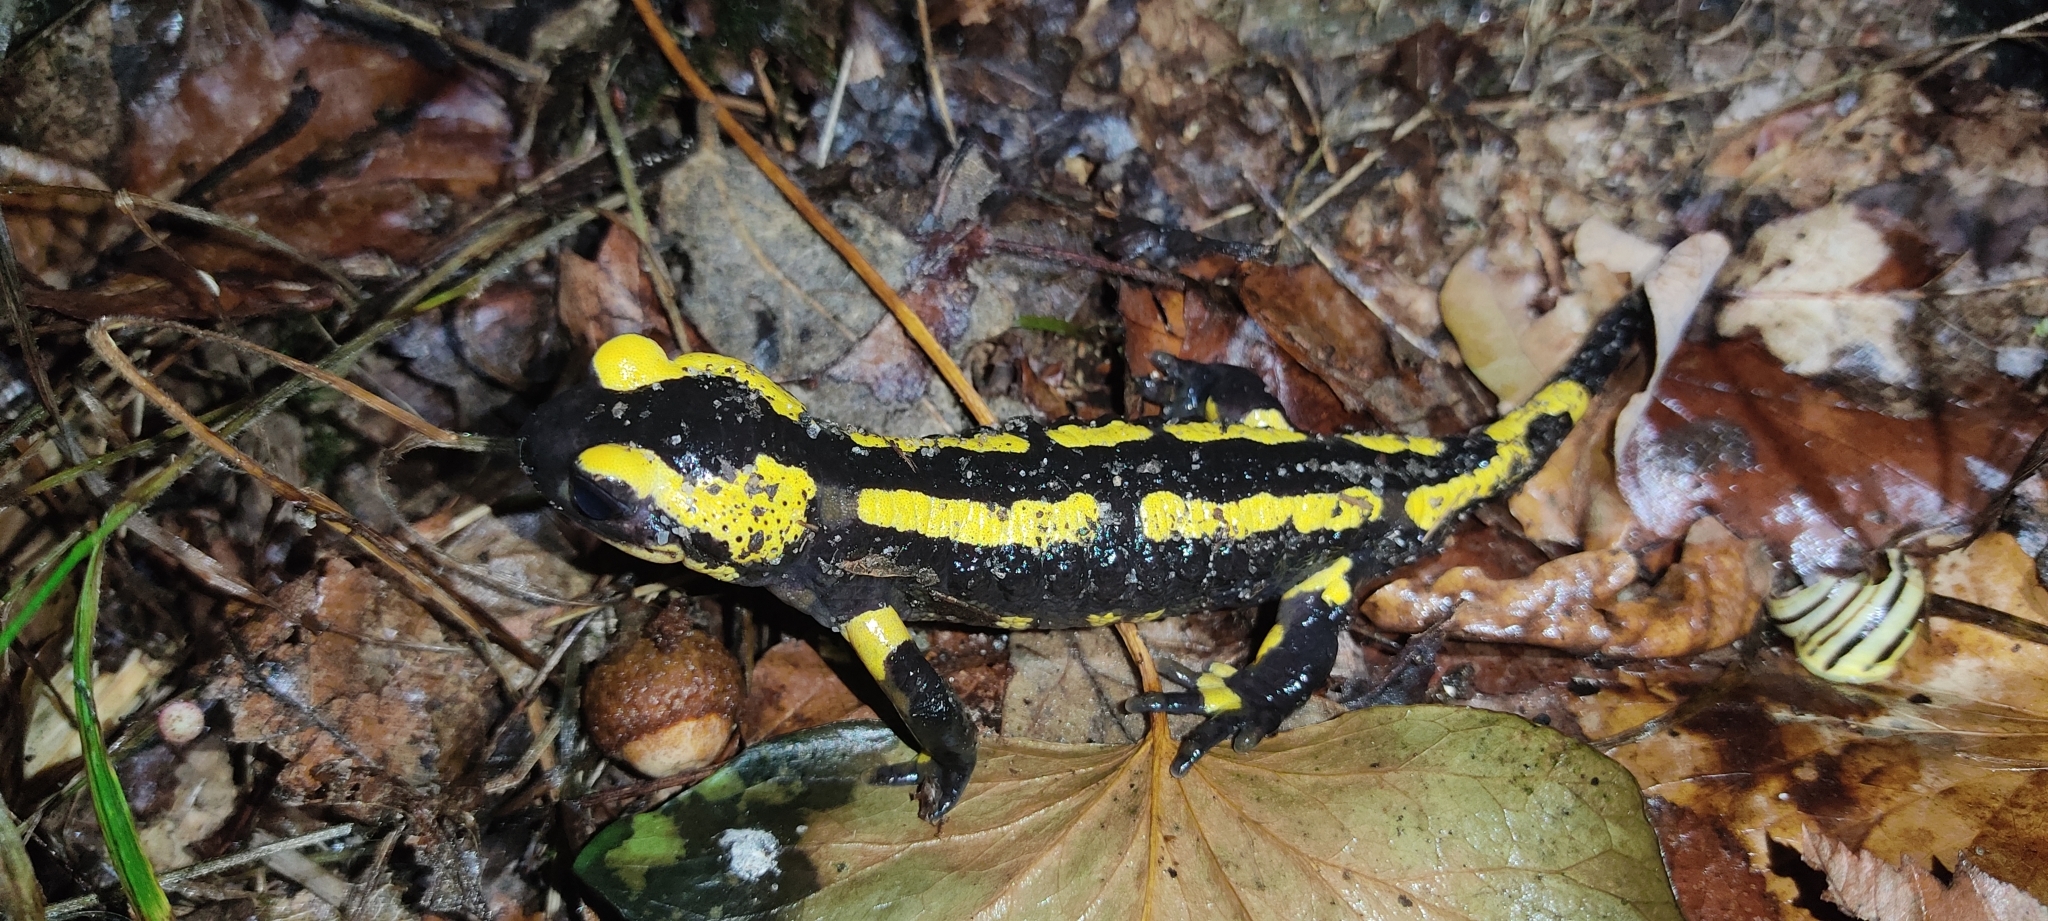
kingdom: Animalia
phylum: Chordata
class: Amphibia
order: Caudata
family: Salamandridae
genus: Salamandra
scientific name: Salamandra salamandra
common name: Fire salamander
